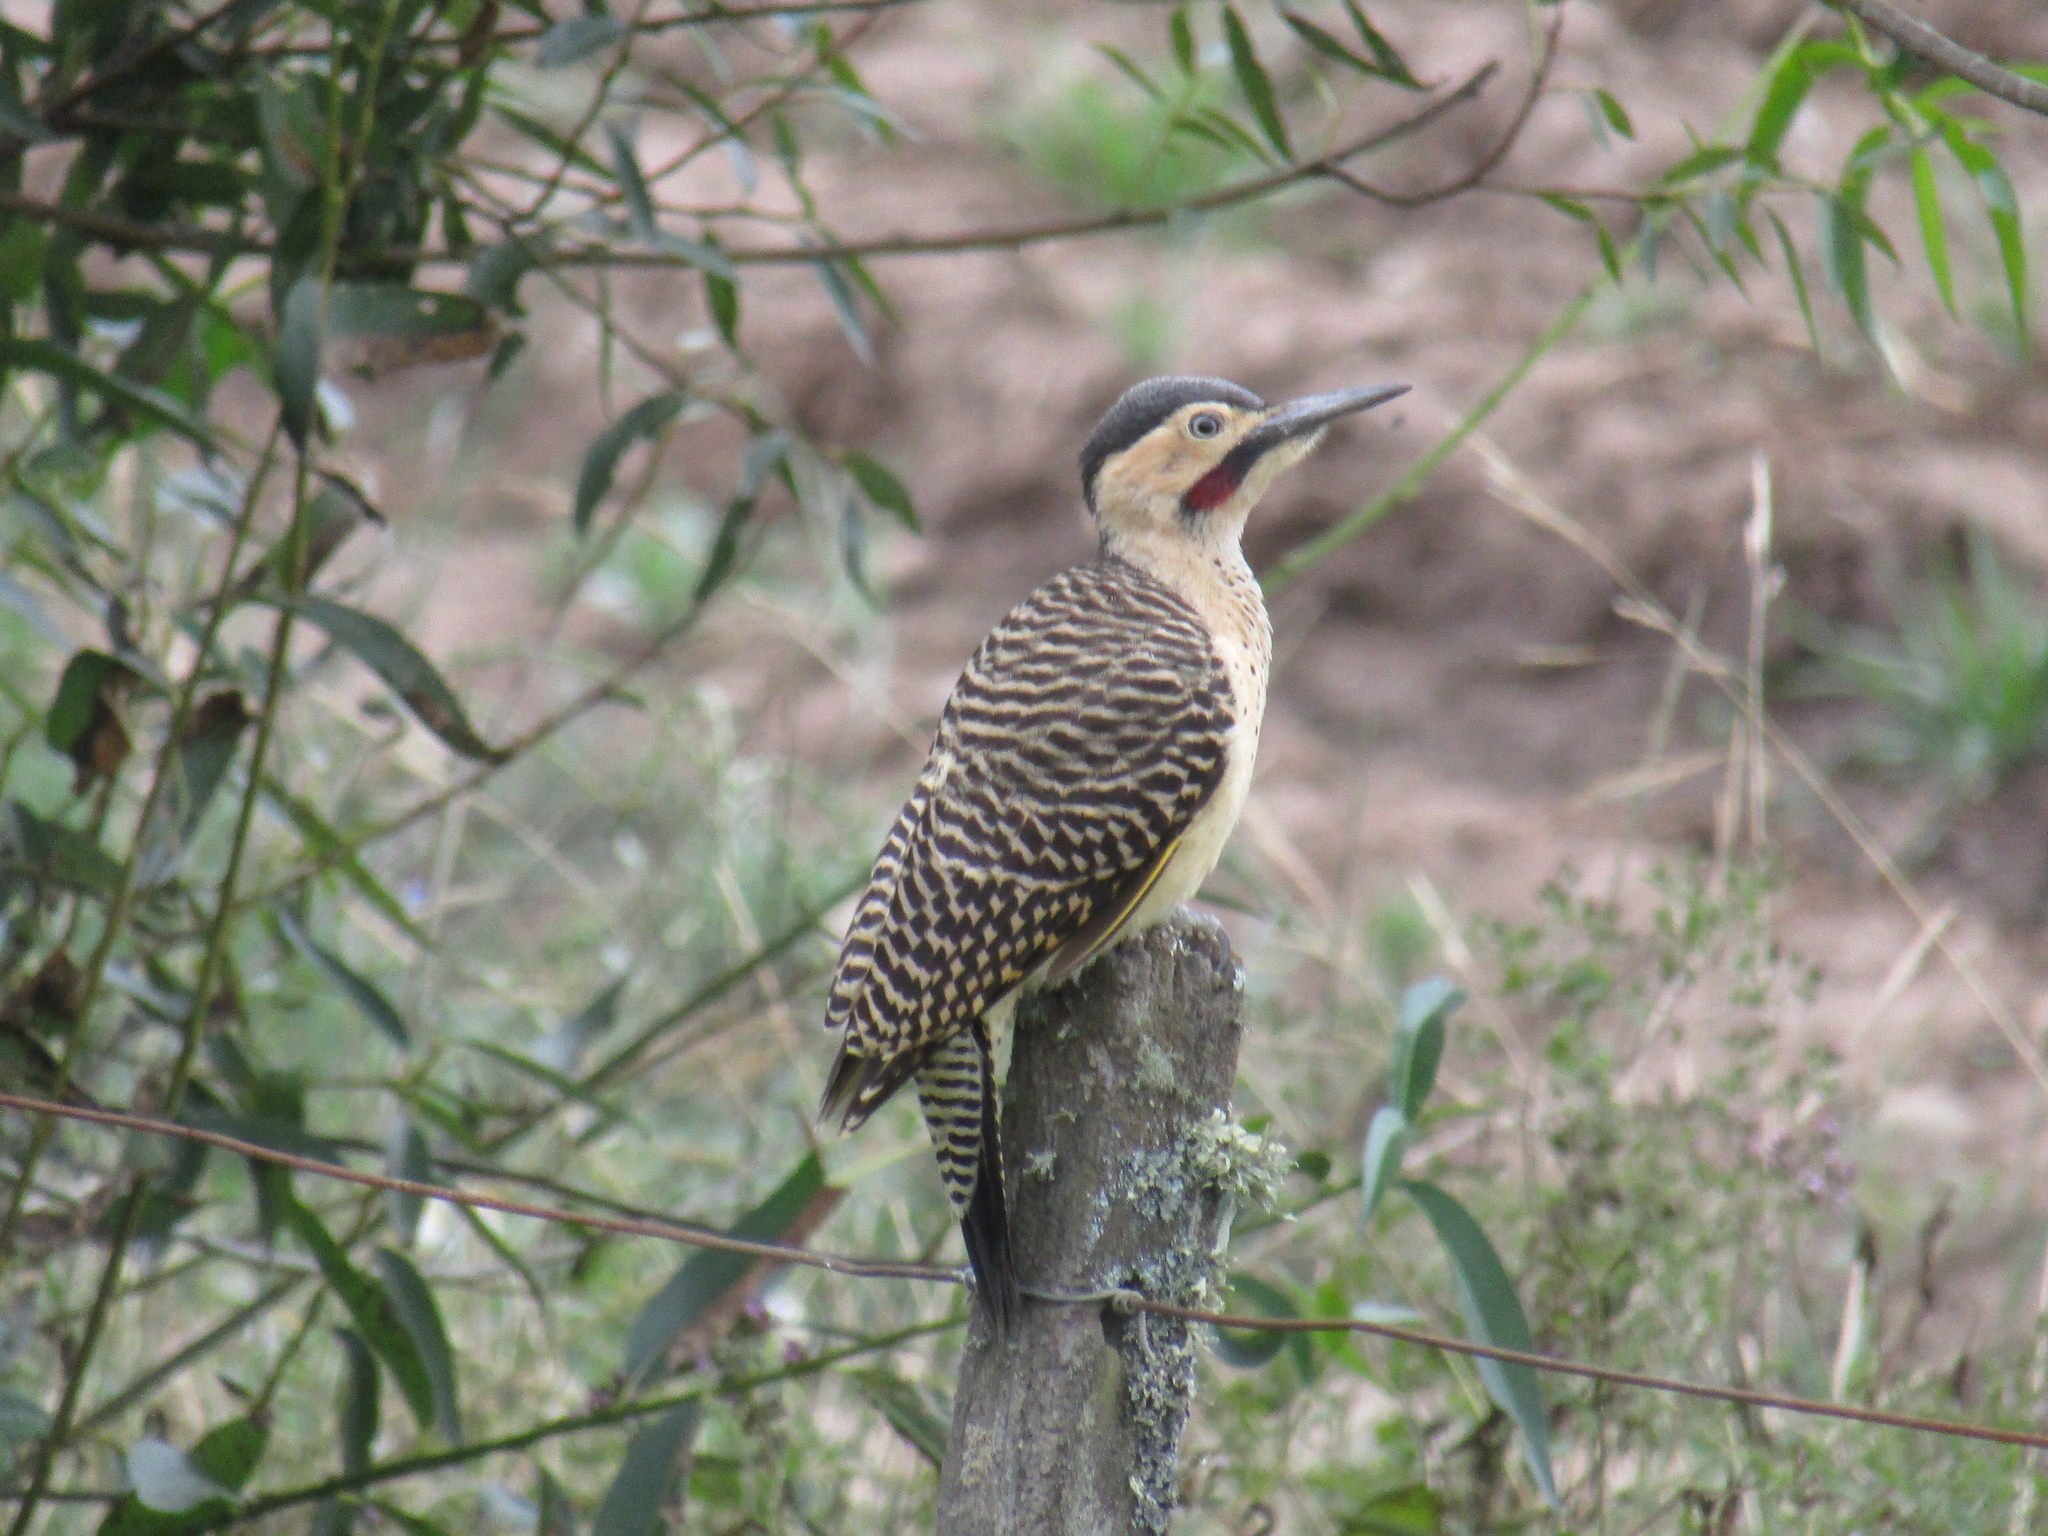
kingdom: Animalia
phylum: Chordata
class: Aves
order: Piciformes
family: Picidae
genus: Colaptes
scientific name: Colaptes rupicola
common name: Andean flicker
